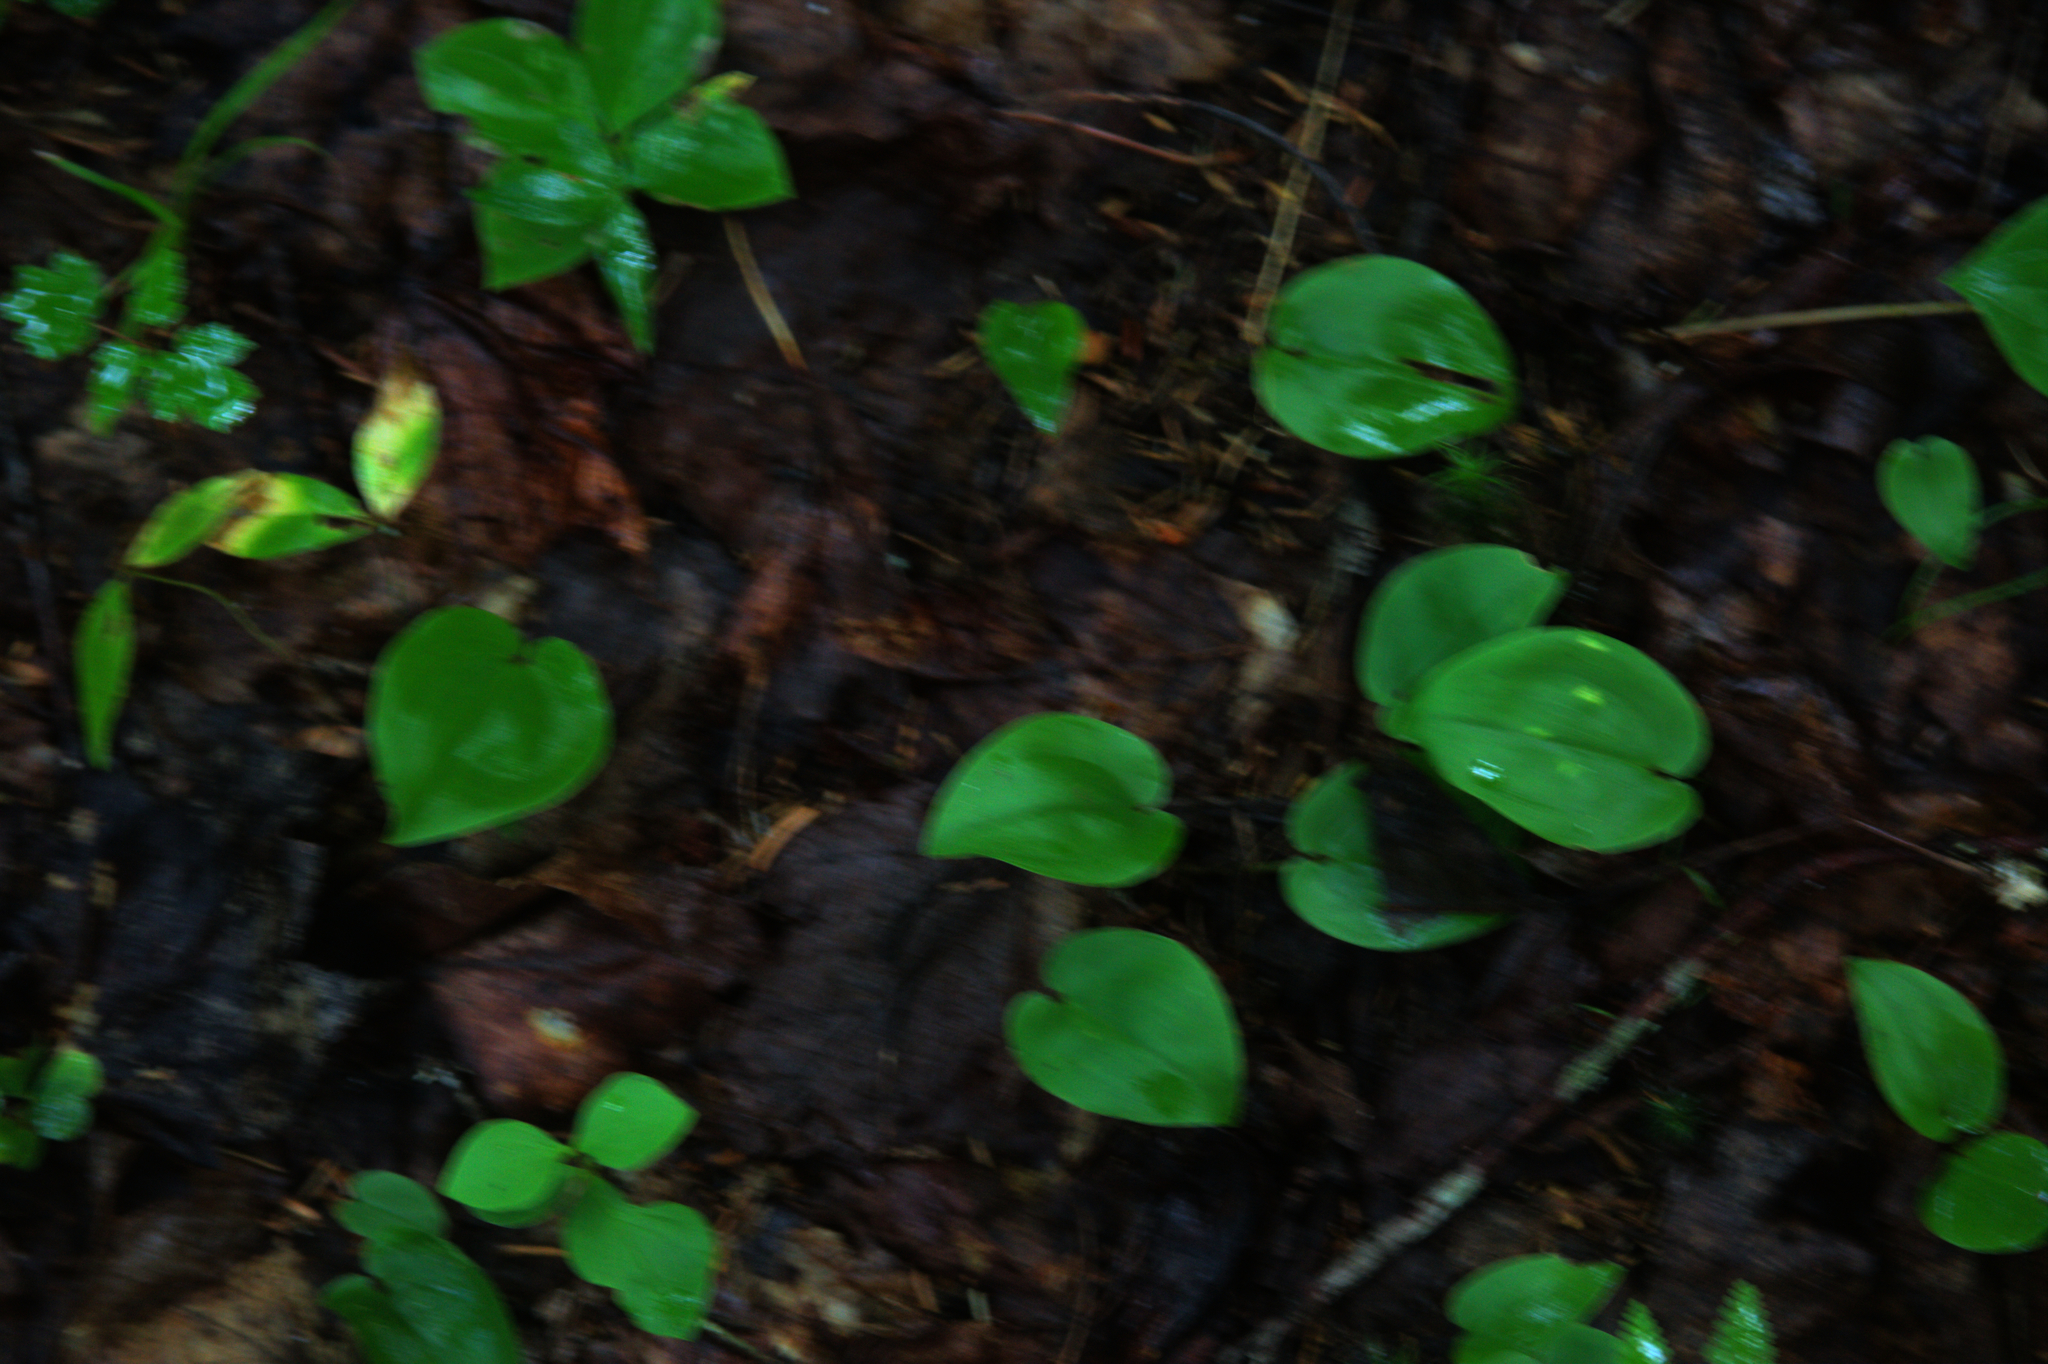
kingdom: Plantae
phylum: Tracheophyta
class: Liliopsida
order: Asparagales
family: Asparagaceae
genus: Maianthemum
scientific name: Maianthemum canadense
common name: False lily-of-the-valley
